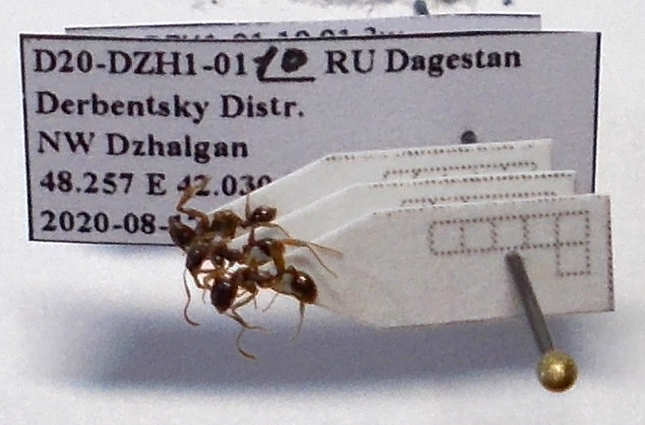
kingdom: Animalia
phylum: Arthropoda
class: Insecta
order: Hymenoptera
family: Formicidae
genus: Aphaenogaster
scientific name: Aphaenogaster subterranea
